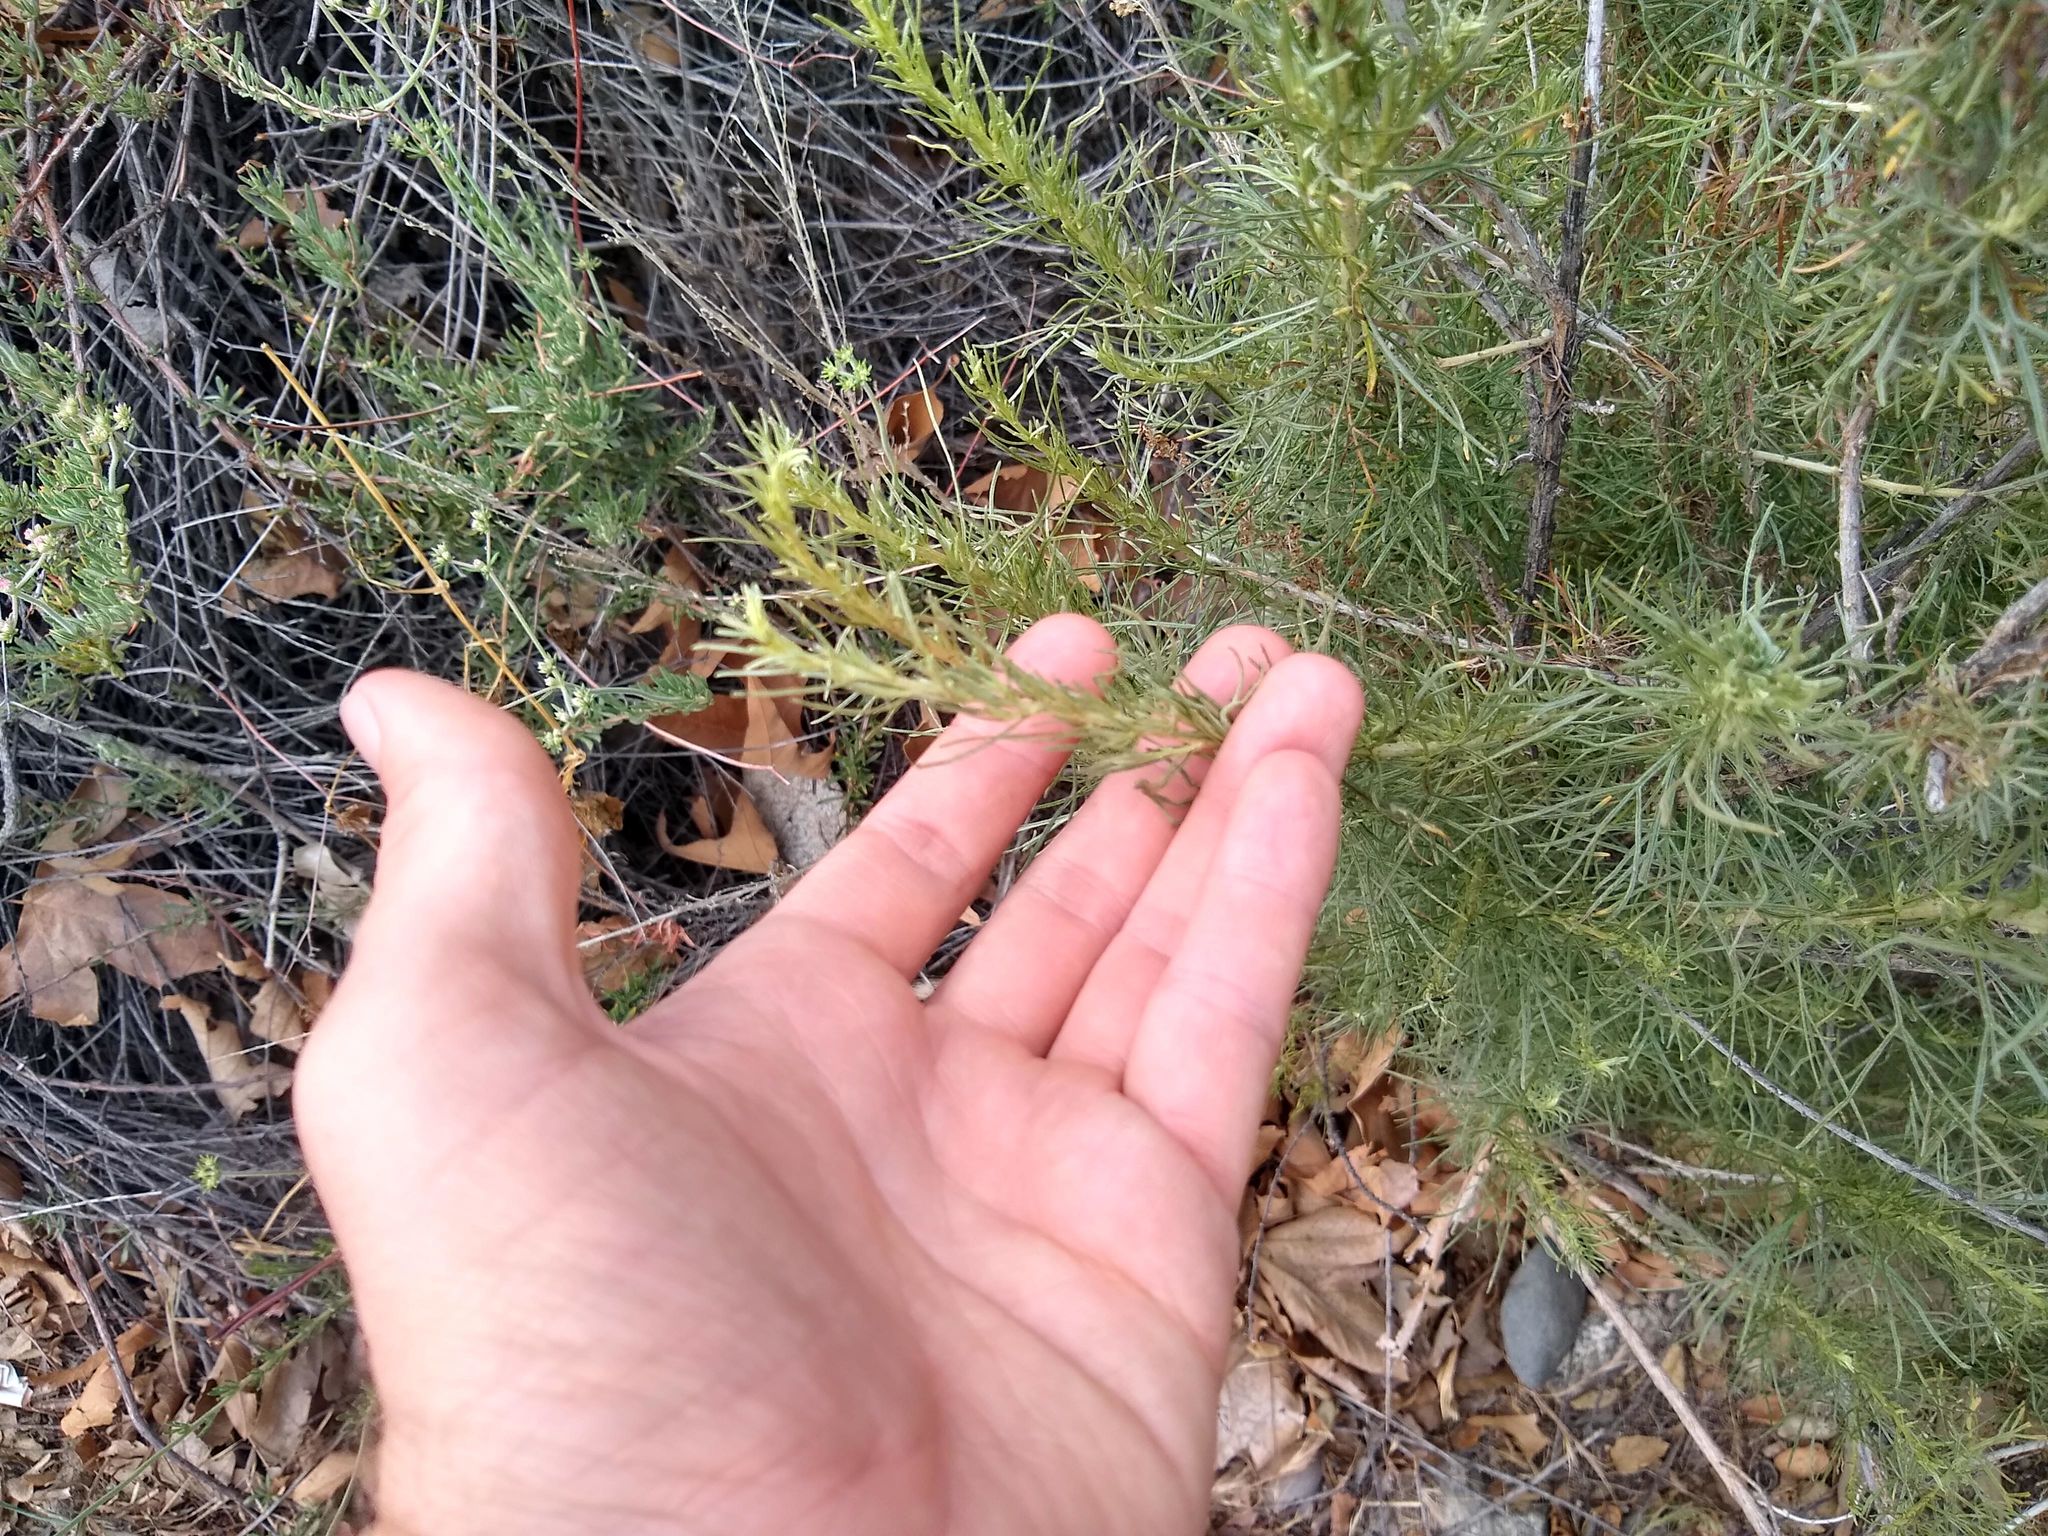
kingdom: Plantae
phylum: Tracheophyta
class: Magnoliopsida
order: Asterales
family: Asteraceae
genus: Artemisia
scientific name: Artemisia californica
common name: California sagebrush
